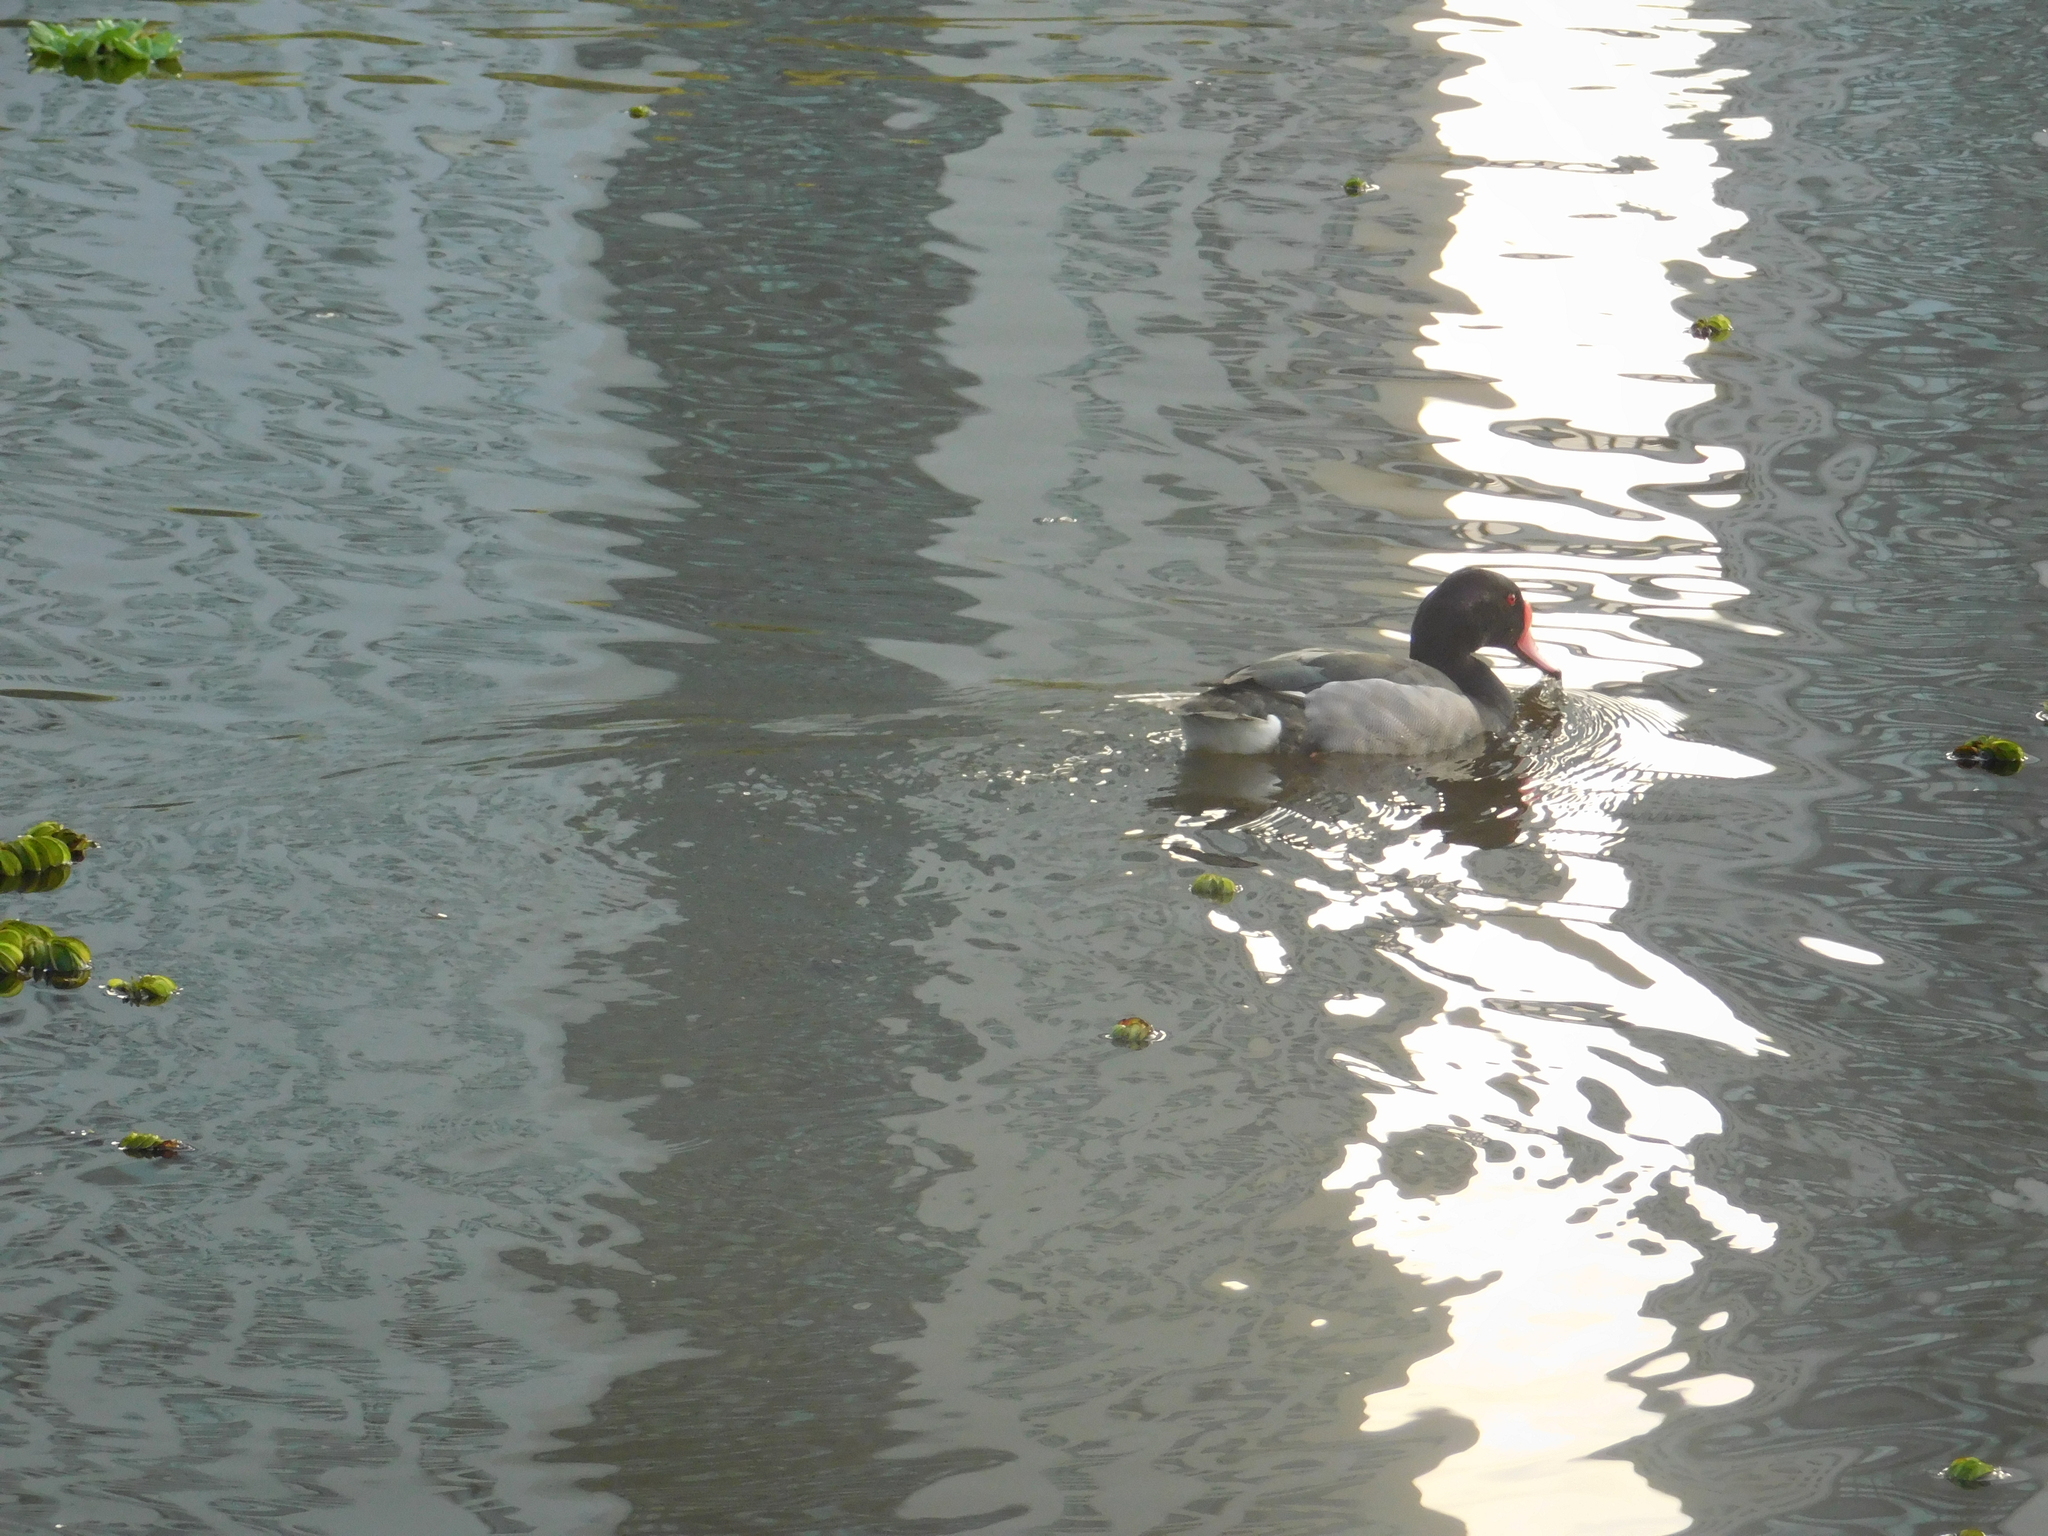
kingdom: Animalia
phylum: Chordata
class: Aves
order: Anseriformes
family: Anatidae
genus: Netta
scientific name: Netta peposaca
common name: Rosy-billed pochard
